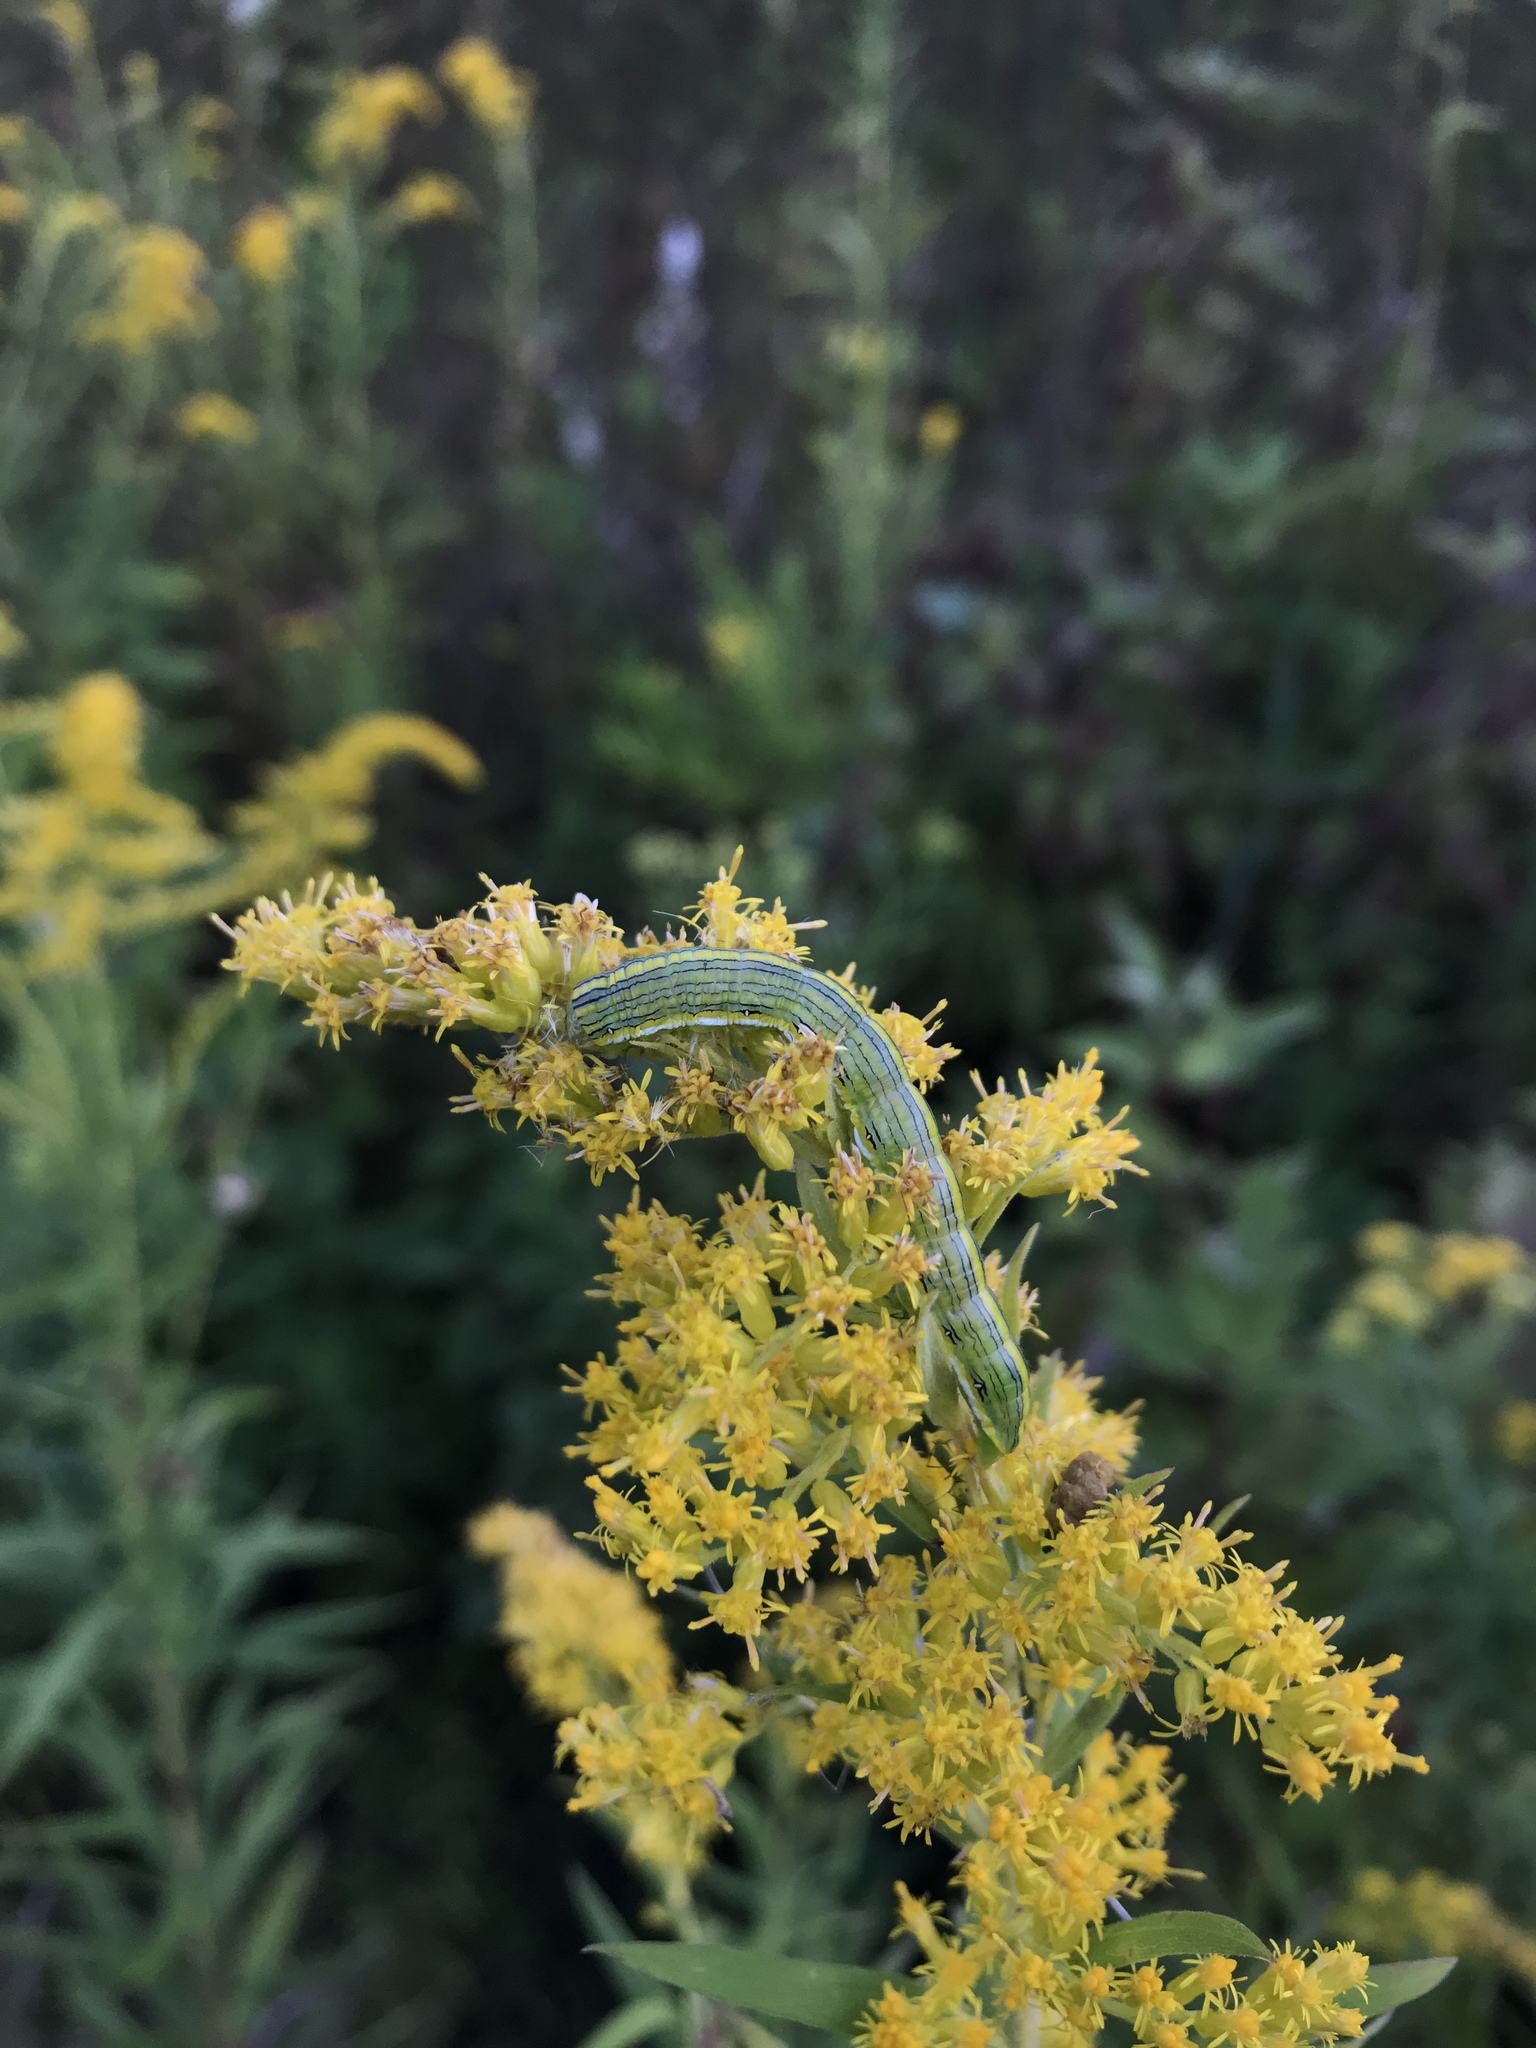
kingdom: Animalia
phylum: Arthropoda
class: Insecta
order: Lepidoptera
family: Noctuidae
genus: Cucullia
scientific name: Cucullia asteroides
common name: Asteroid moth
